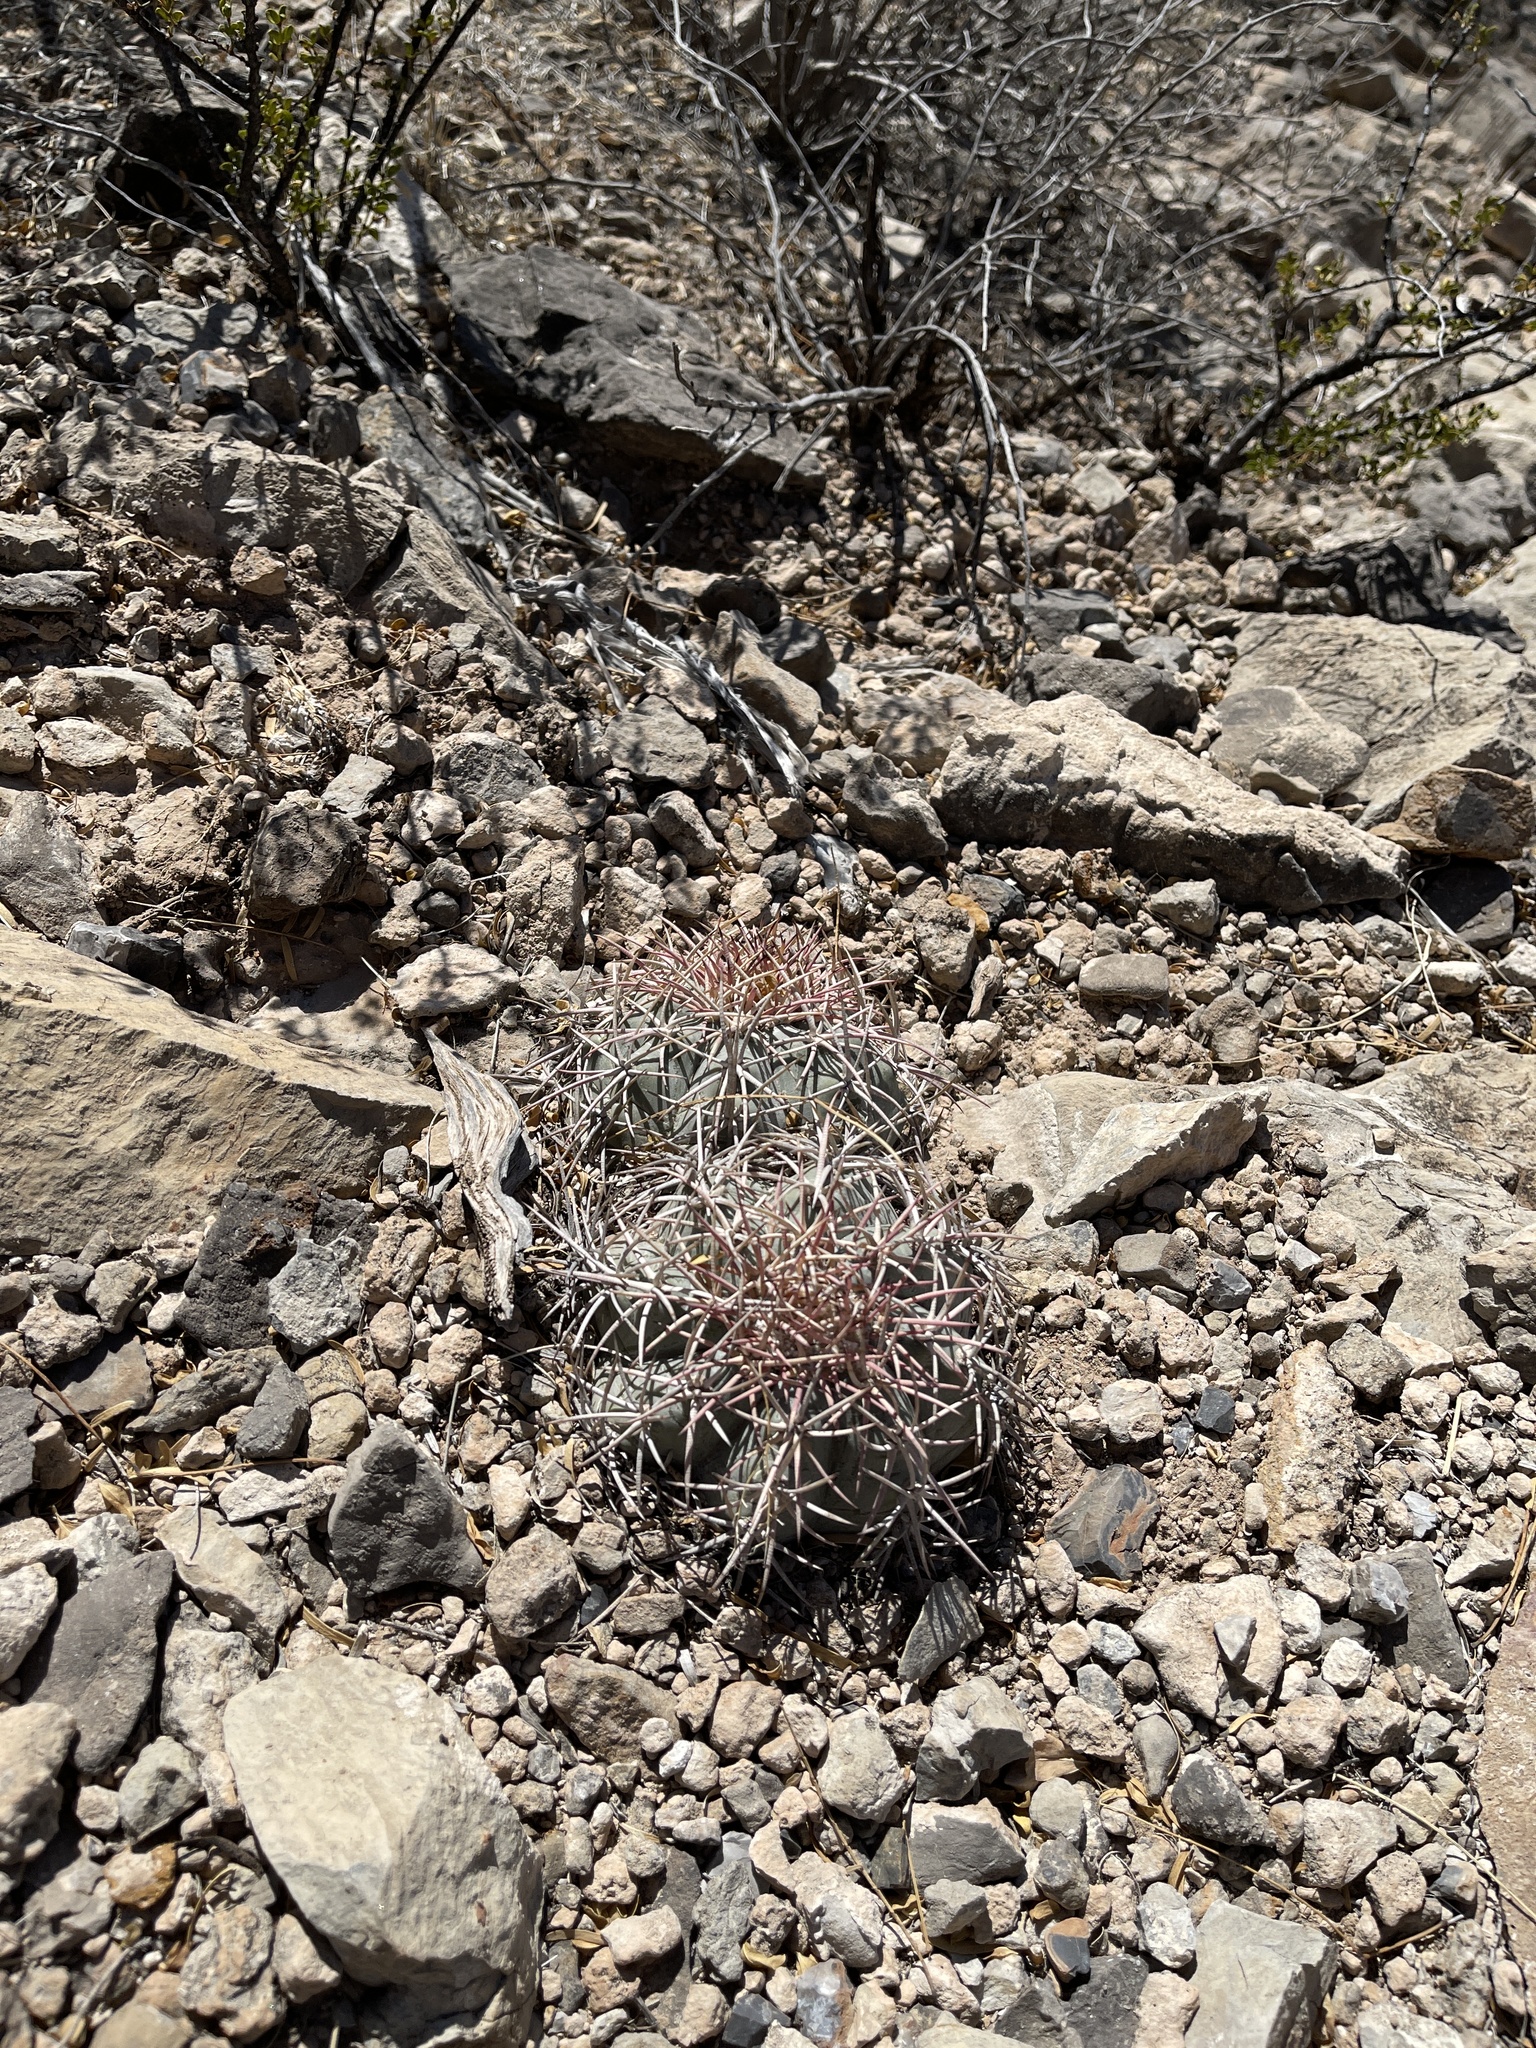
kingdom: Plantae
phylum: Tracheophyta
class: Magnoliopsida
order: Caryophyllales
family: Cactaceae
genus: Echinocactus
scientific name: Echinocactus horizonthalonius
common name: Devilshead
